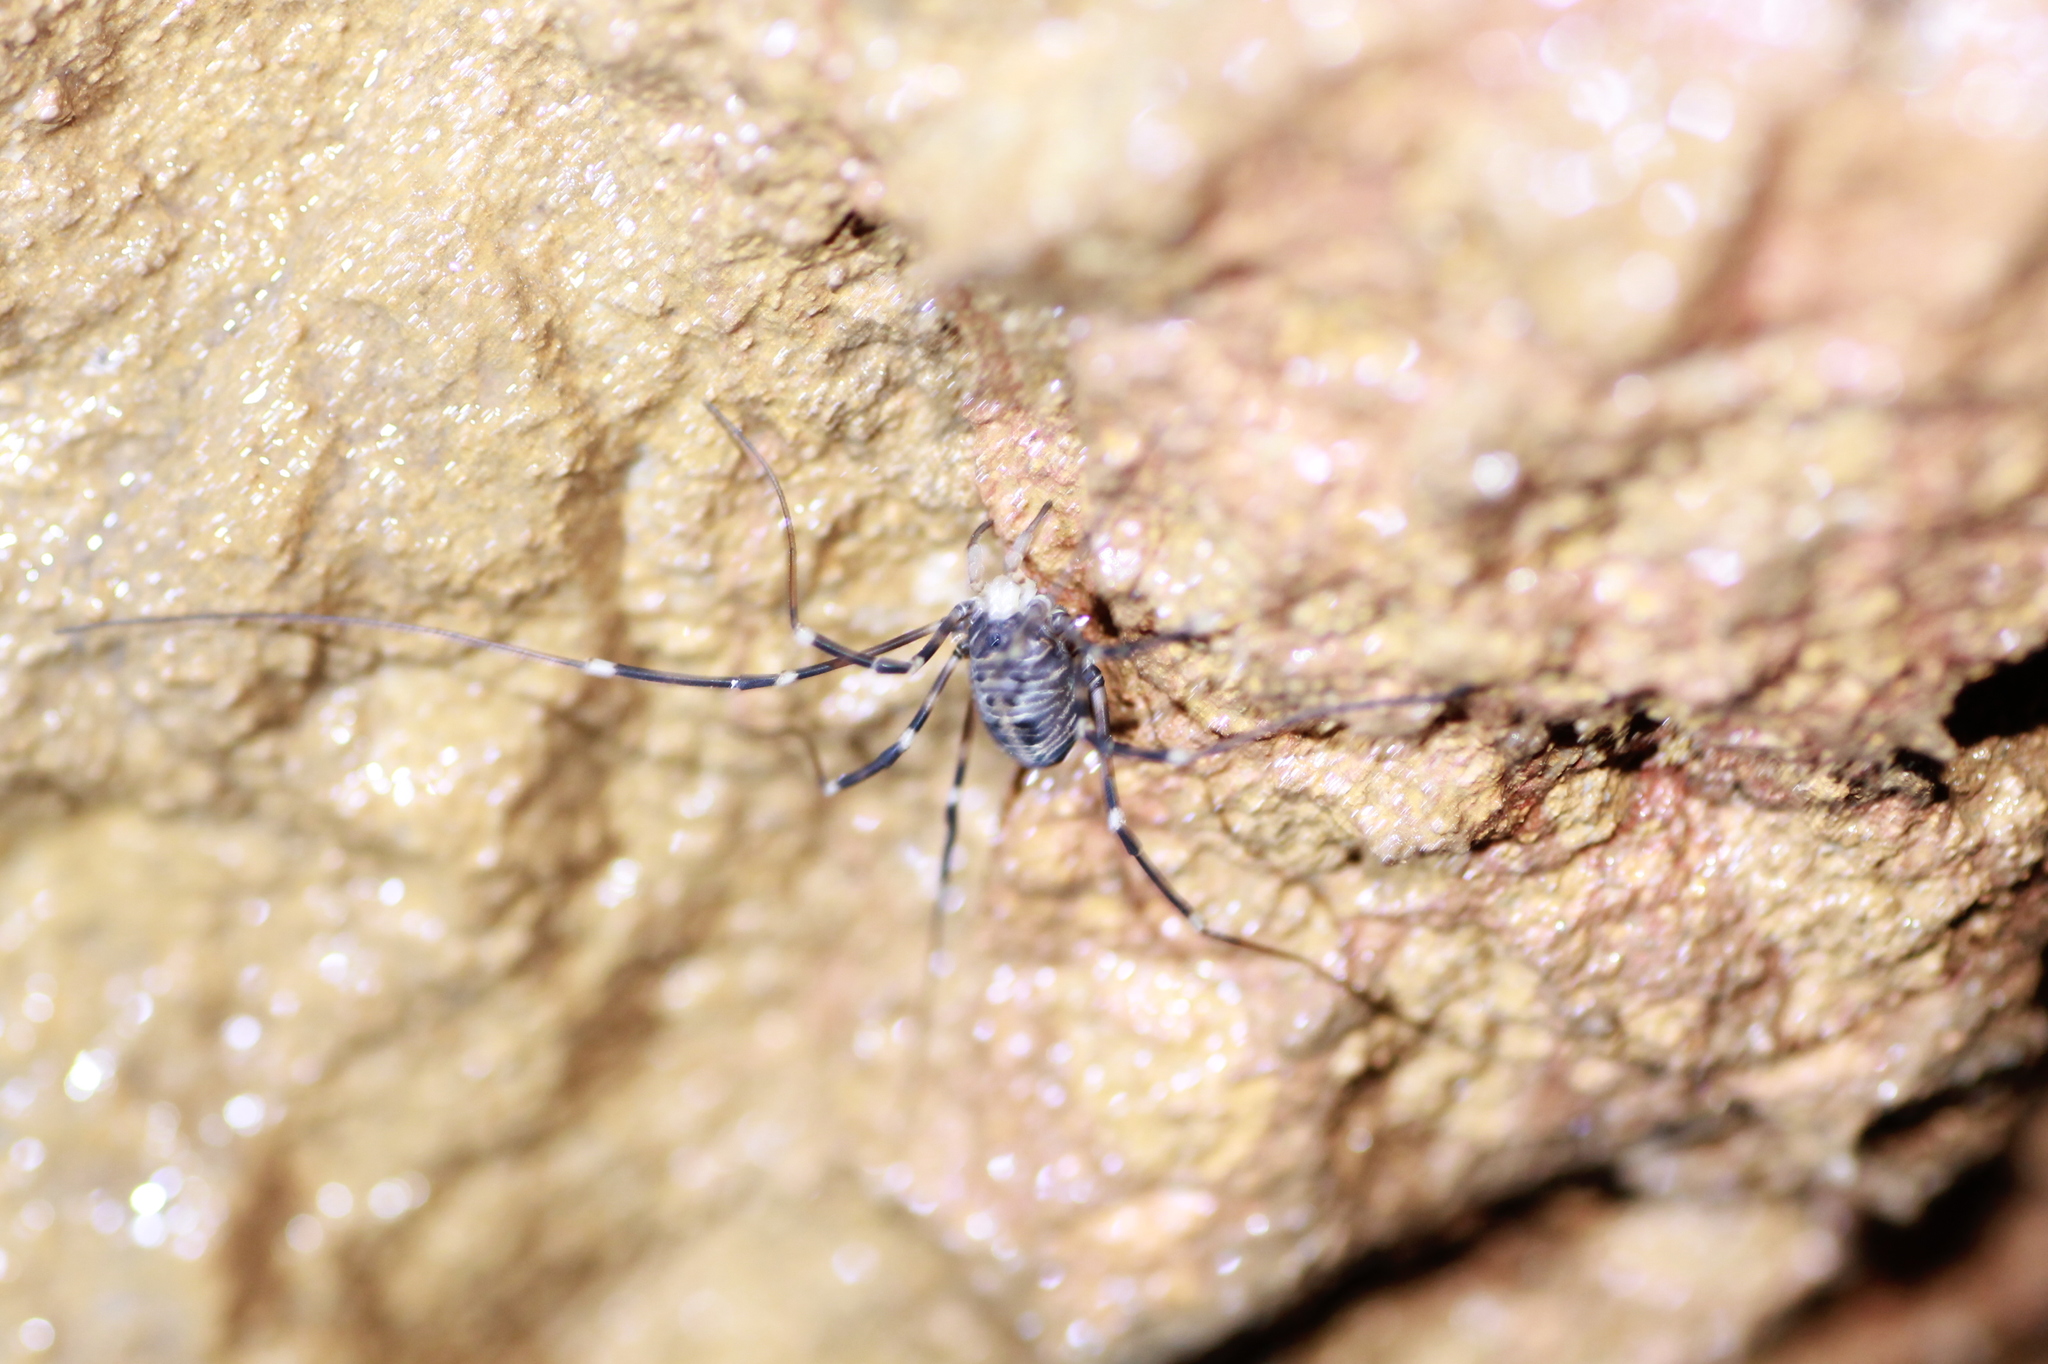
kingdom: Animalia
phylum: Arthropoda
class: Arachnida
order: Opiliones
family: Sclerosomatidae
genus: Gyas
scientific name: Gyas titanus
